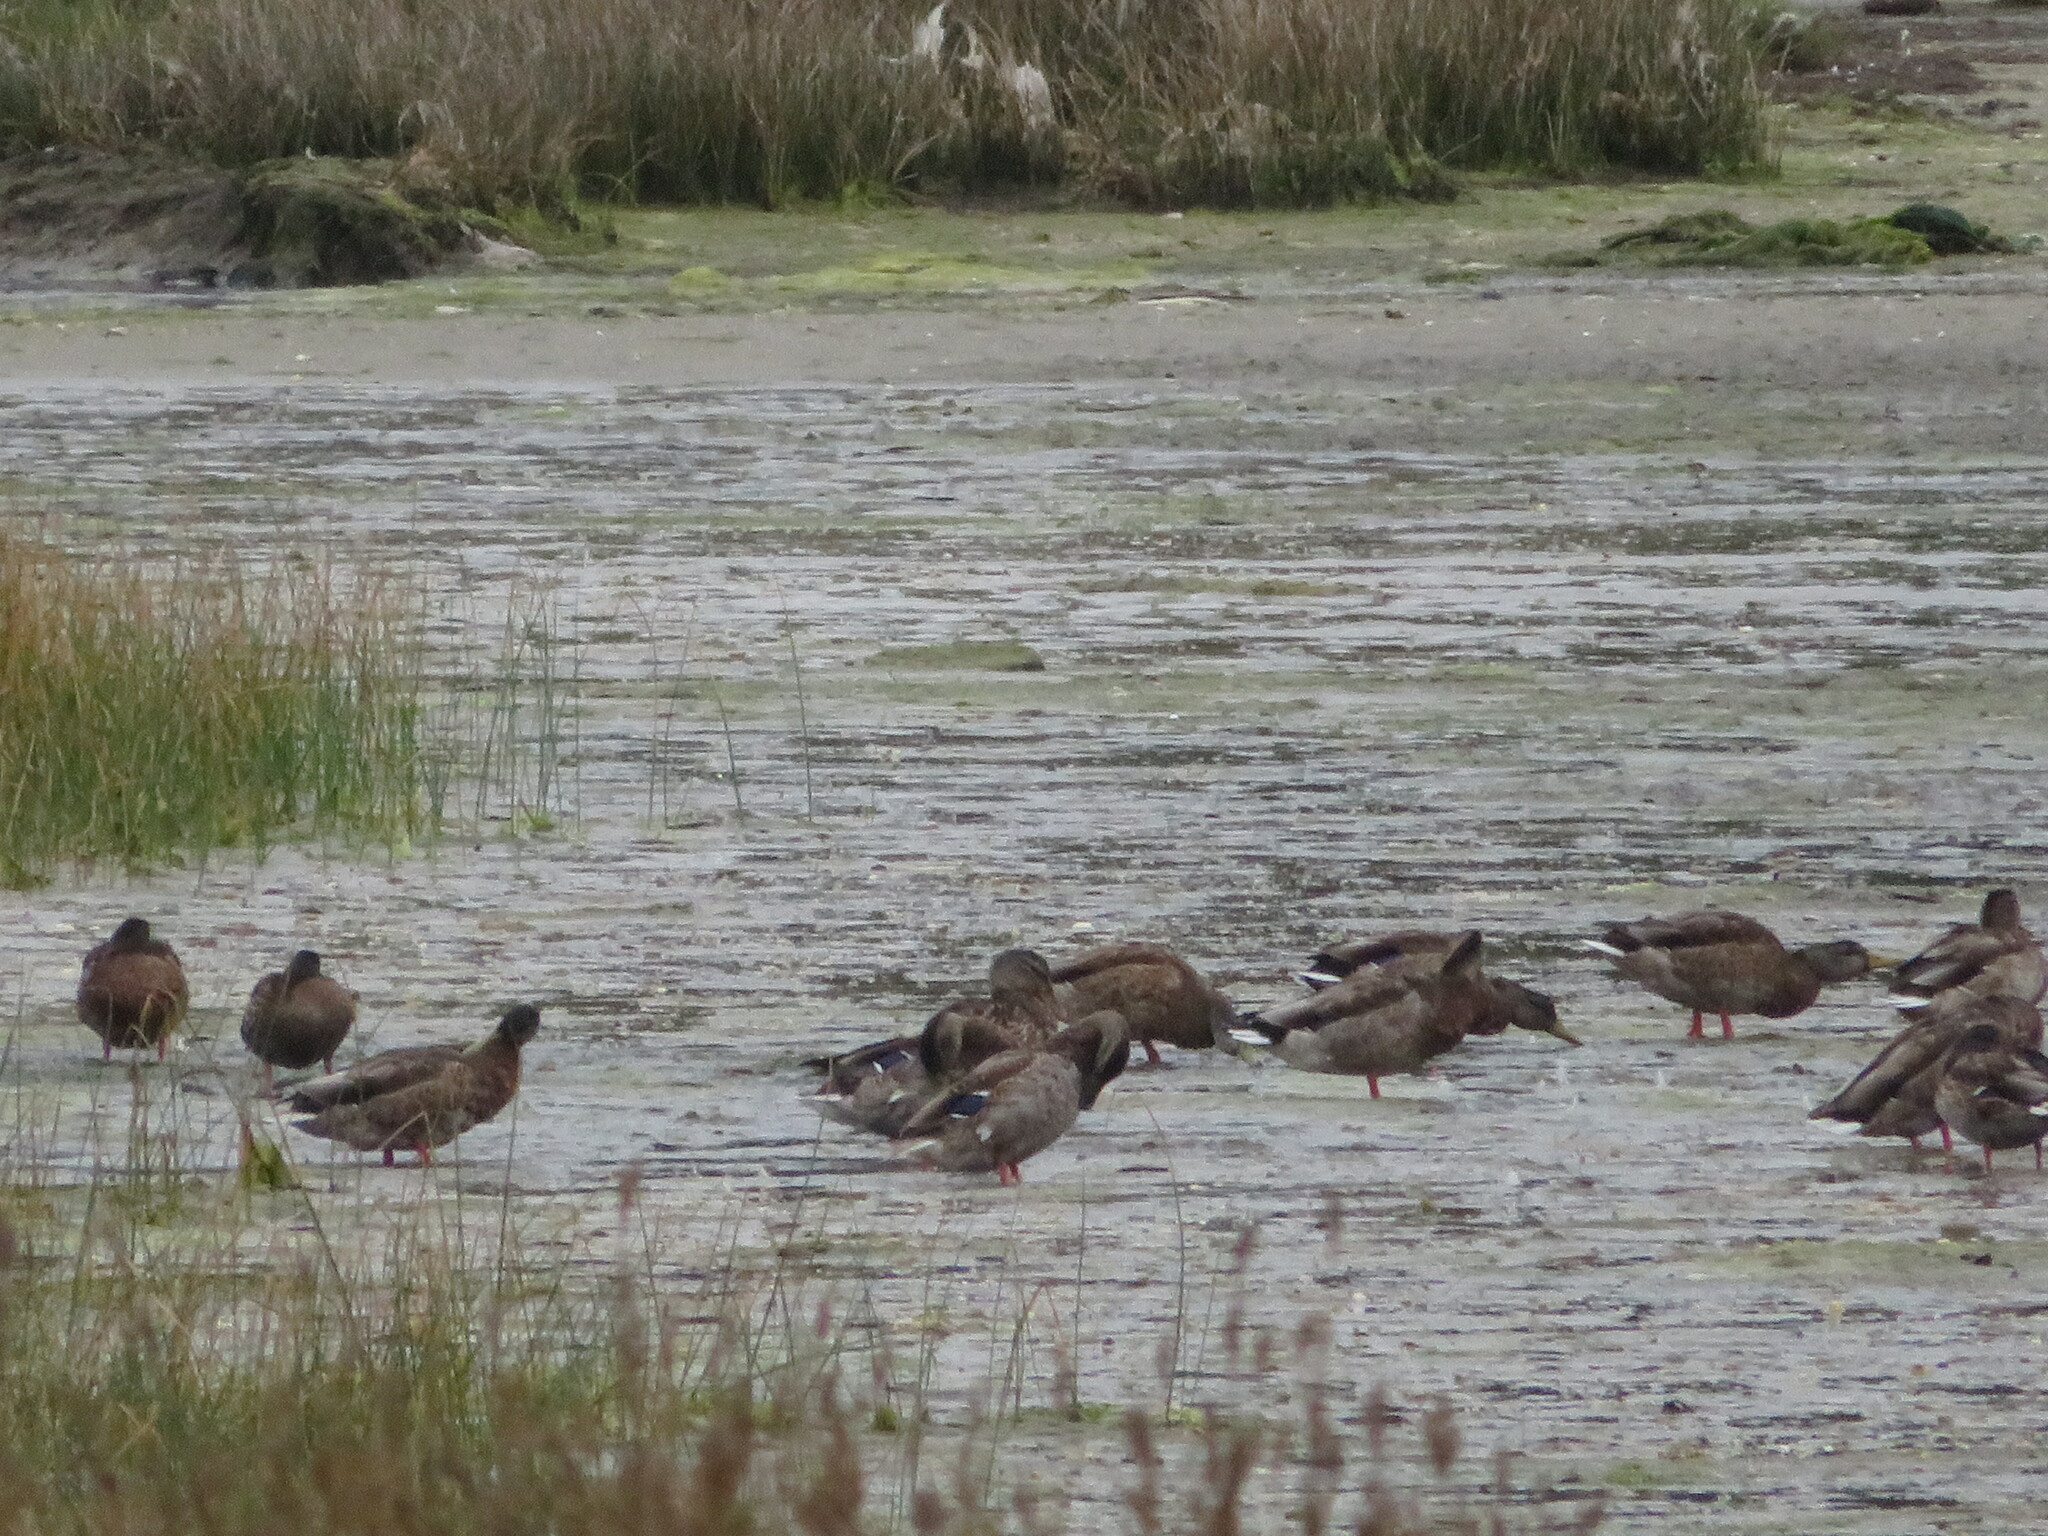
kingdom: Animalia
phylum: Chordata
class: Aves
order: Anseriformes
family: Anatidae
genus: Anas
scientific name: Anas platyrhynchos
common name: Mallard
